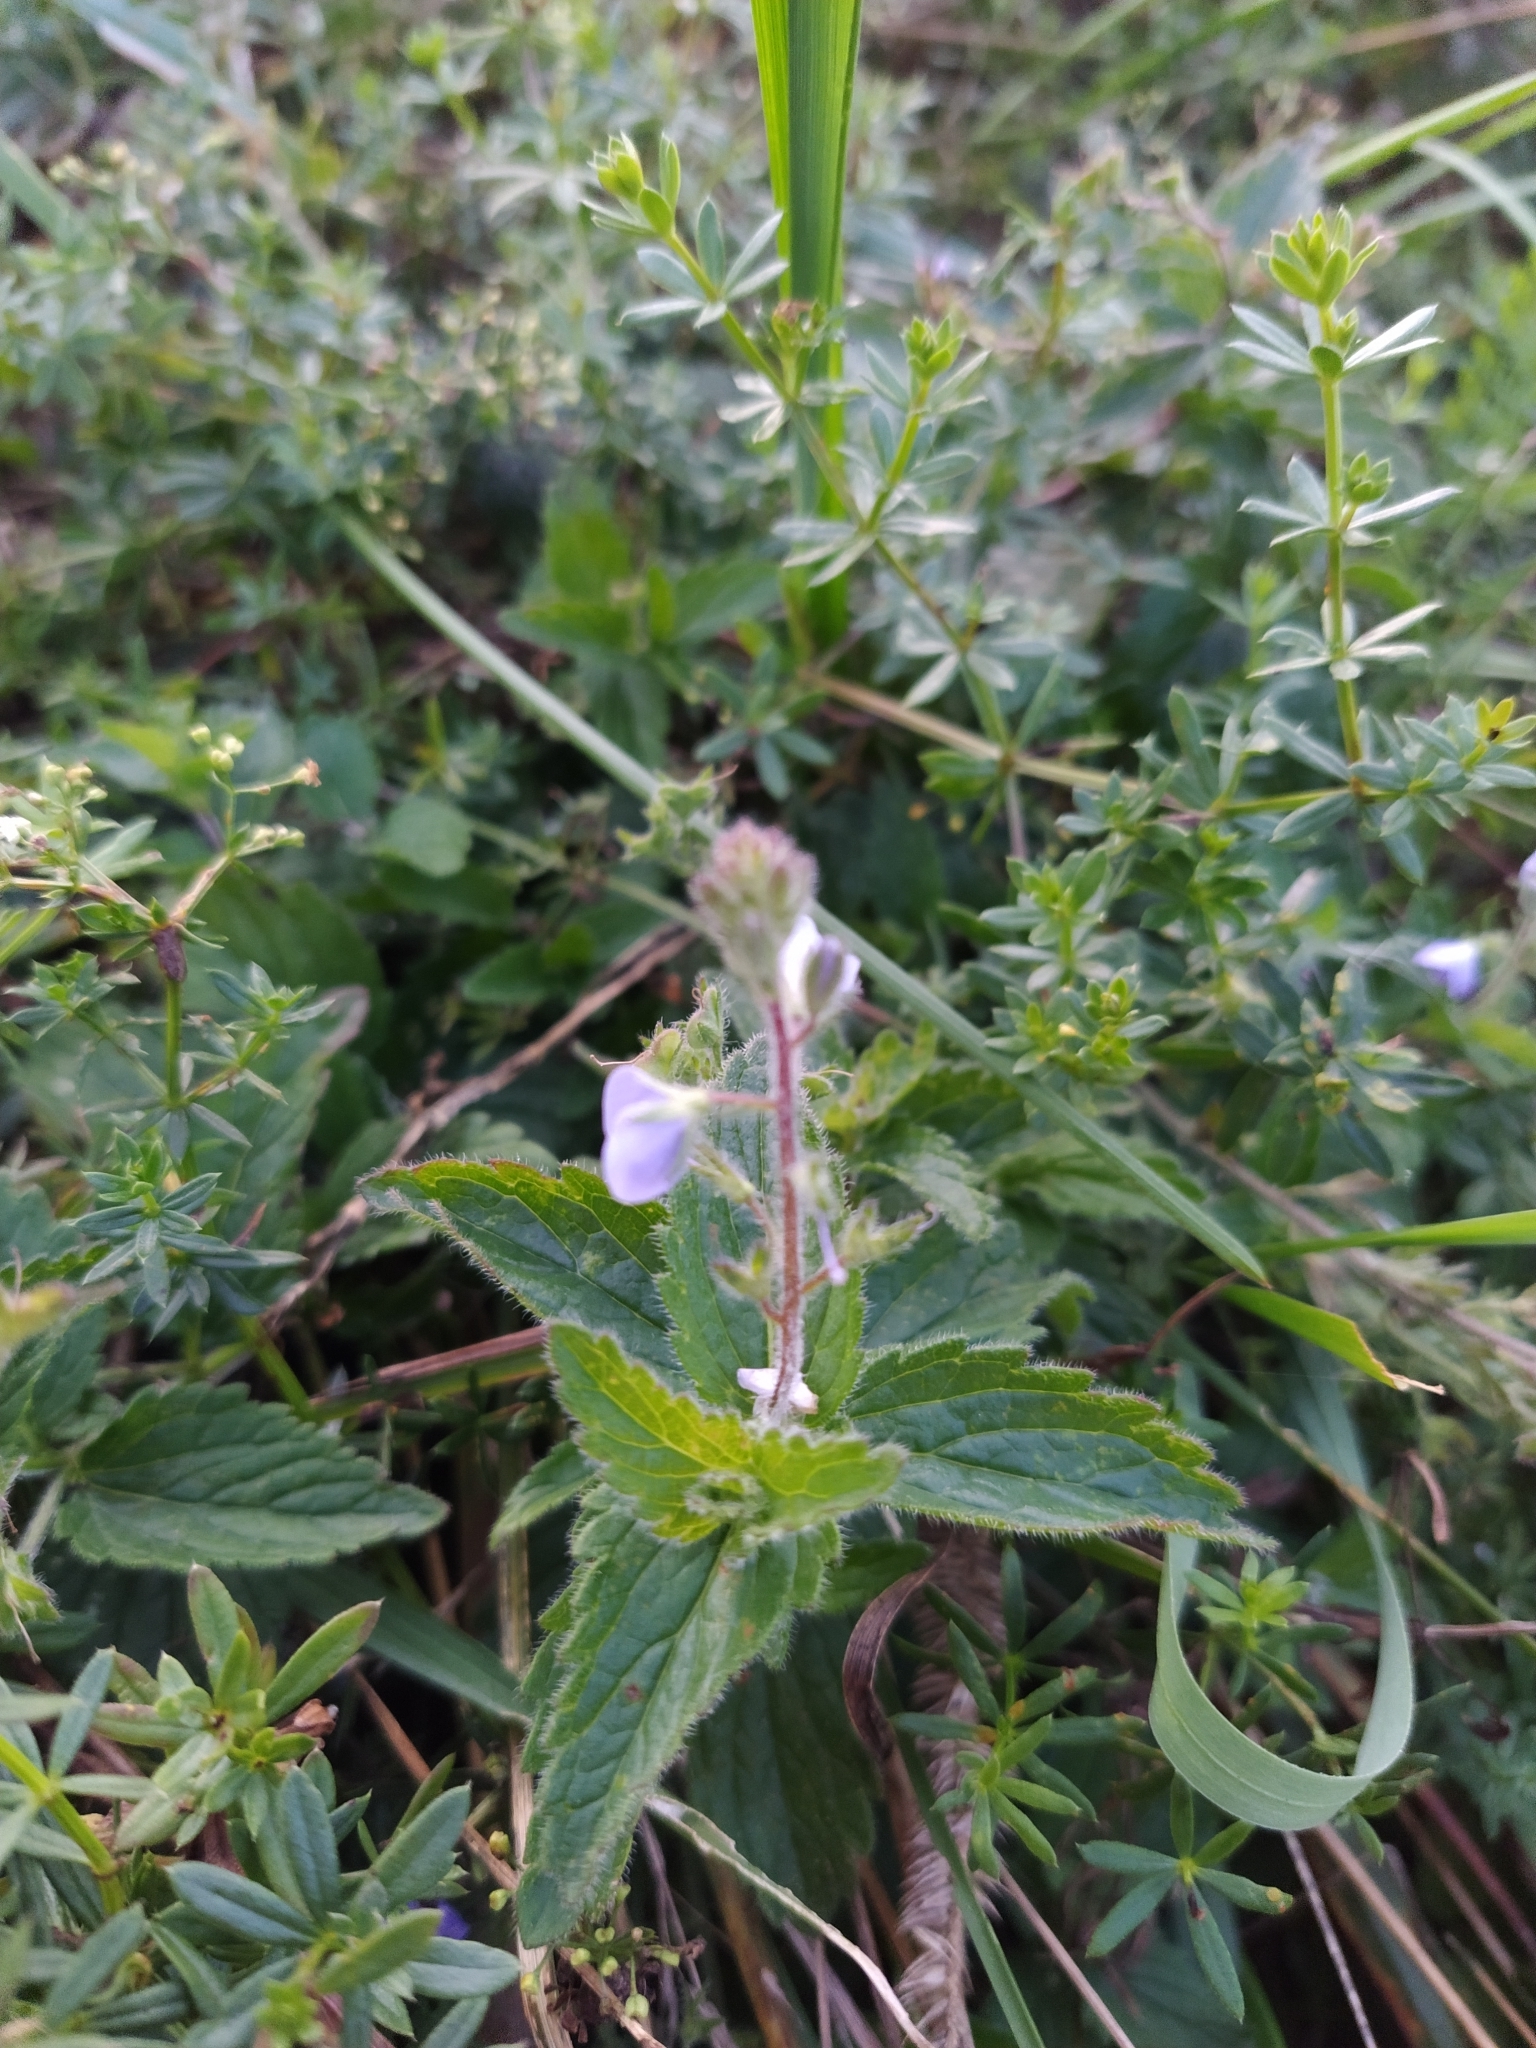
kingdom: Plantae
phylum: Tracheophyta
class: Magnoliopsida
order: Lamiales
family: Plantaginaceae
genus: Veronica
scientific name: Veronica chamaedrys
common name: Germander speedwell
